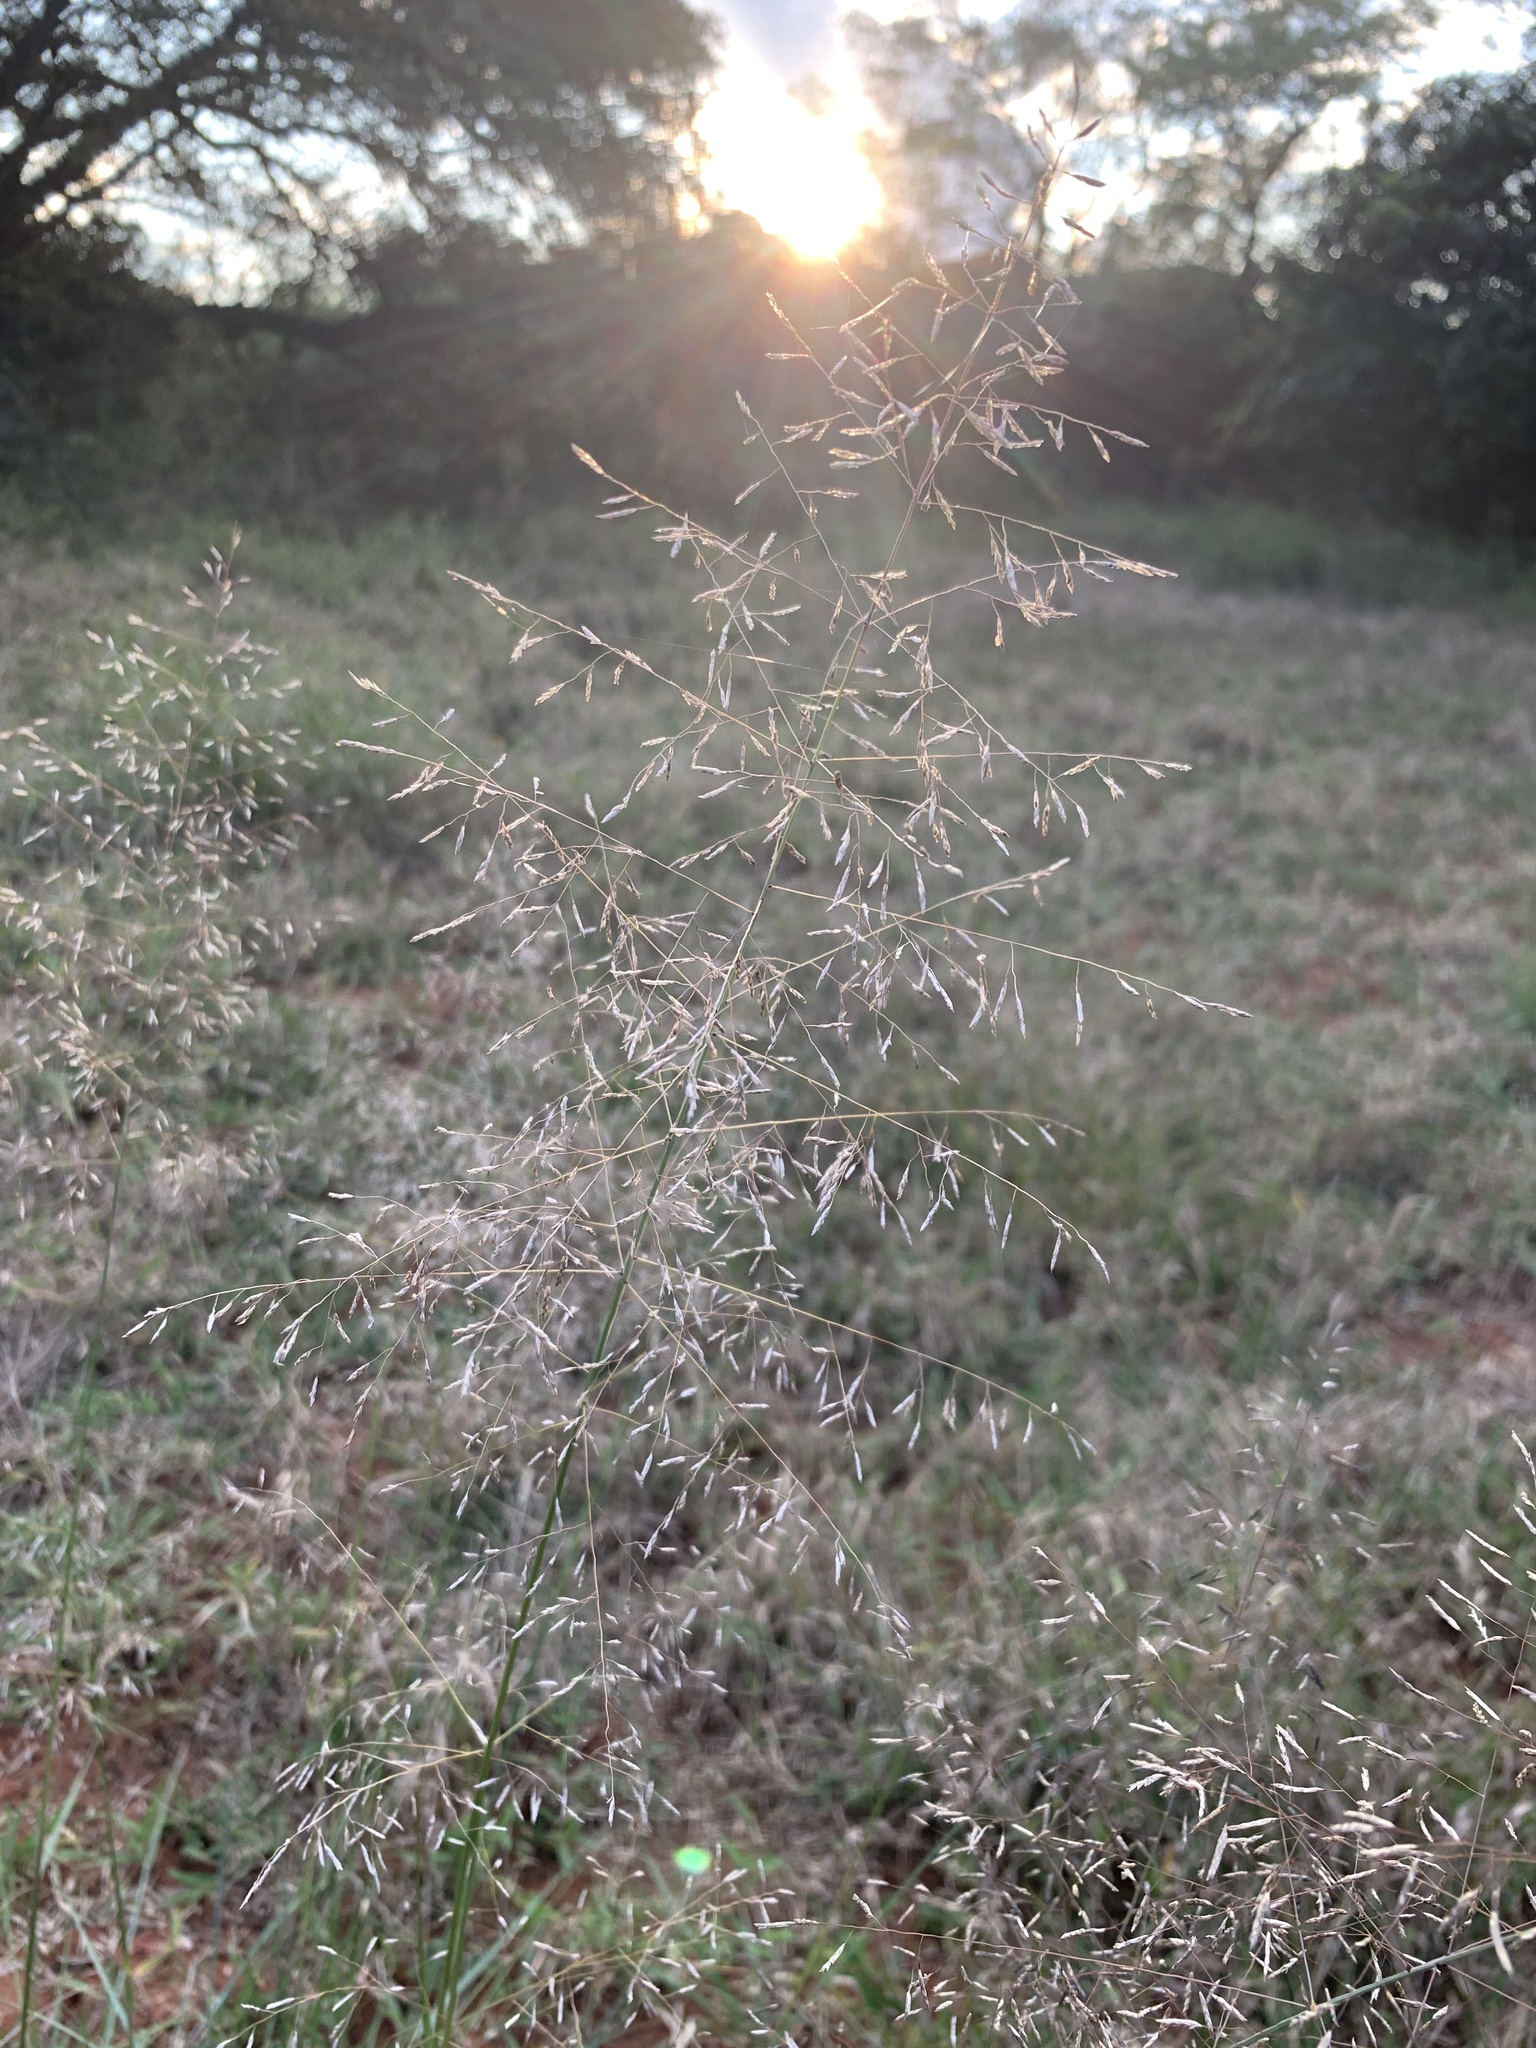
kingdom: Plantae
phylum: Tracheophyta
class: Liliopsida
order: Poales
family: Poaceae
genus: Eragrostis
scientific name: Eragrostis curvula
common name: African love-grass
